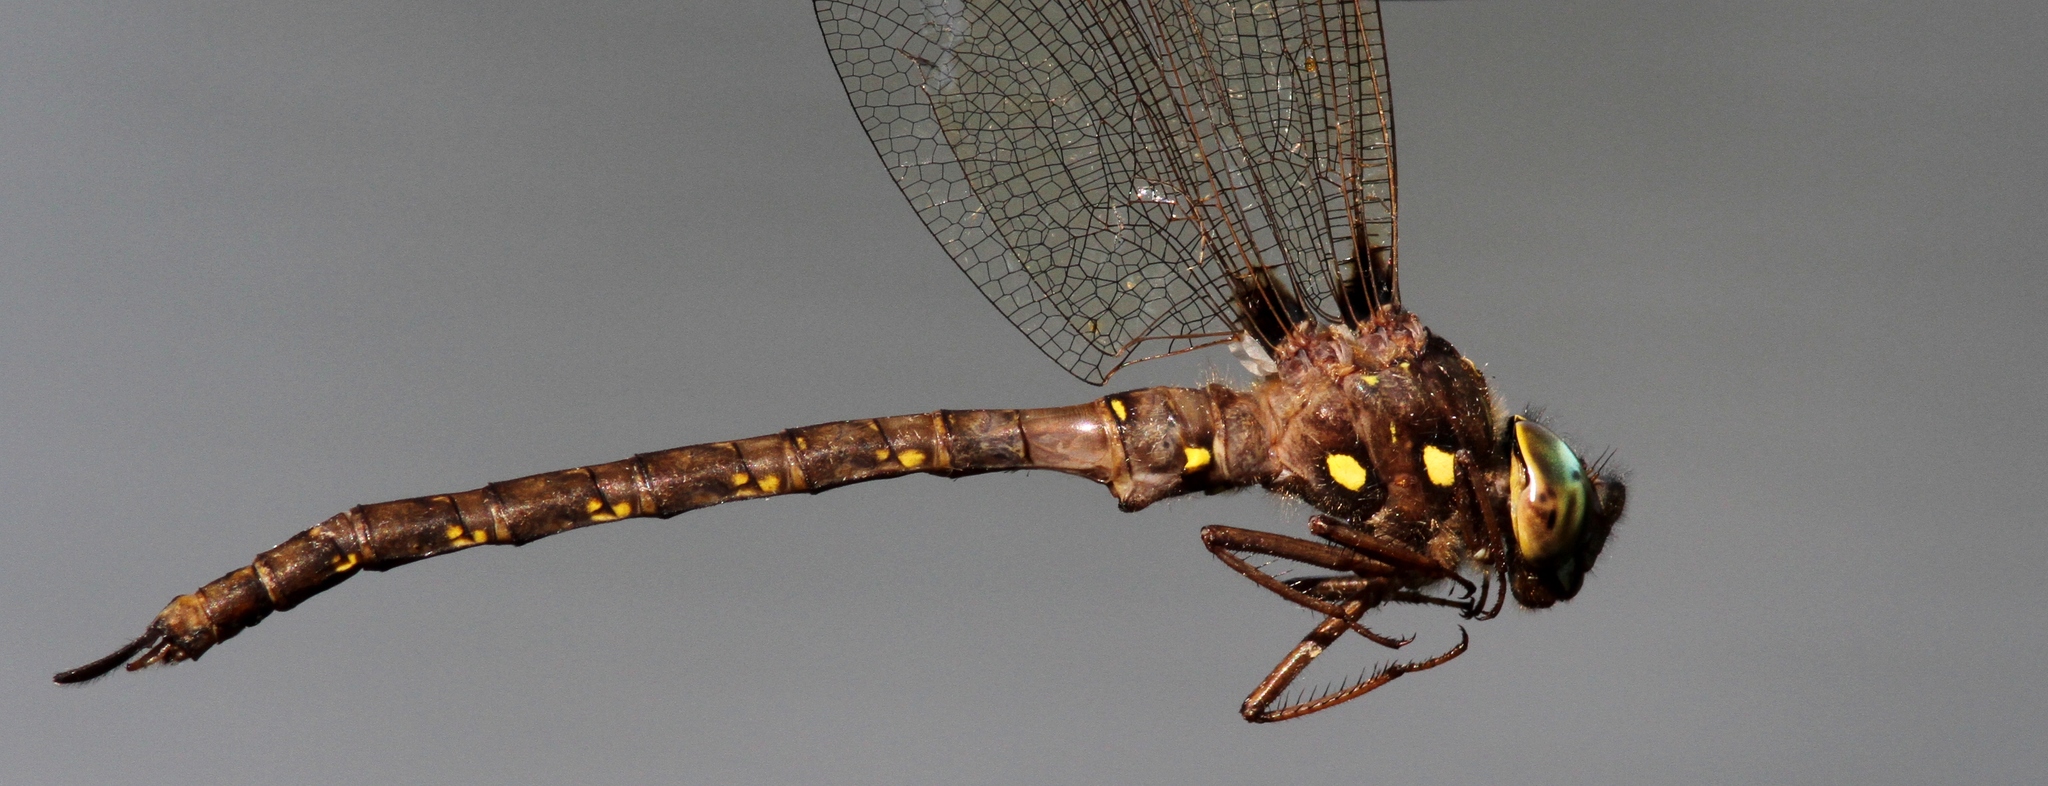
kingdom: Animalia
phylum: Arthropoda
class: Insecta
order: Odonata
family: Aeshnidae
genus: Boyeria
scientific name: Boyeria vinosa
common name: Fawn darner
